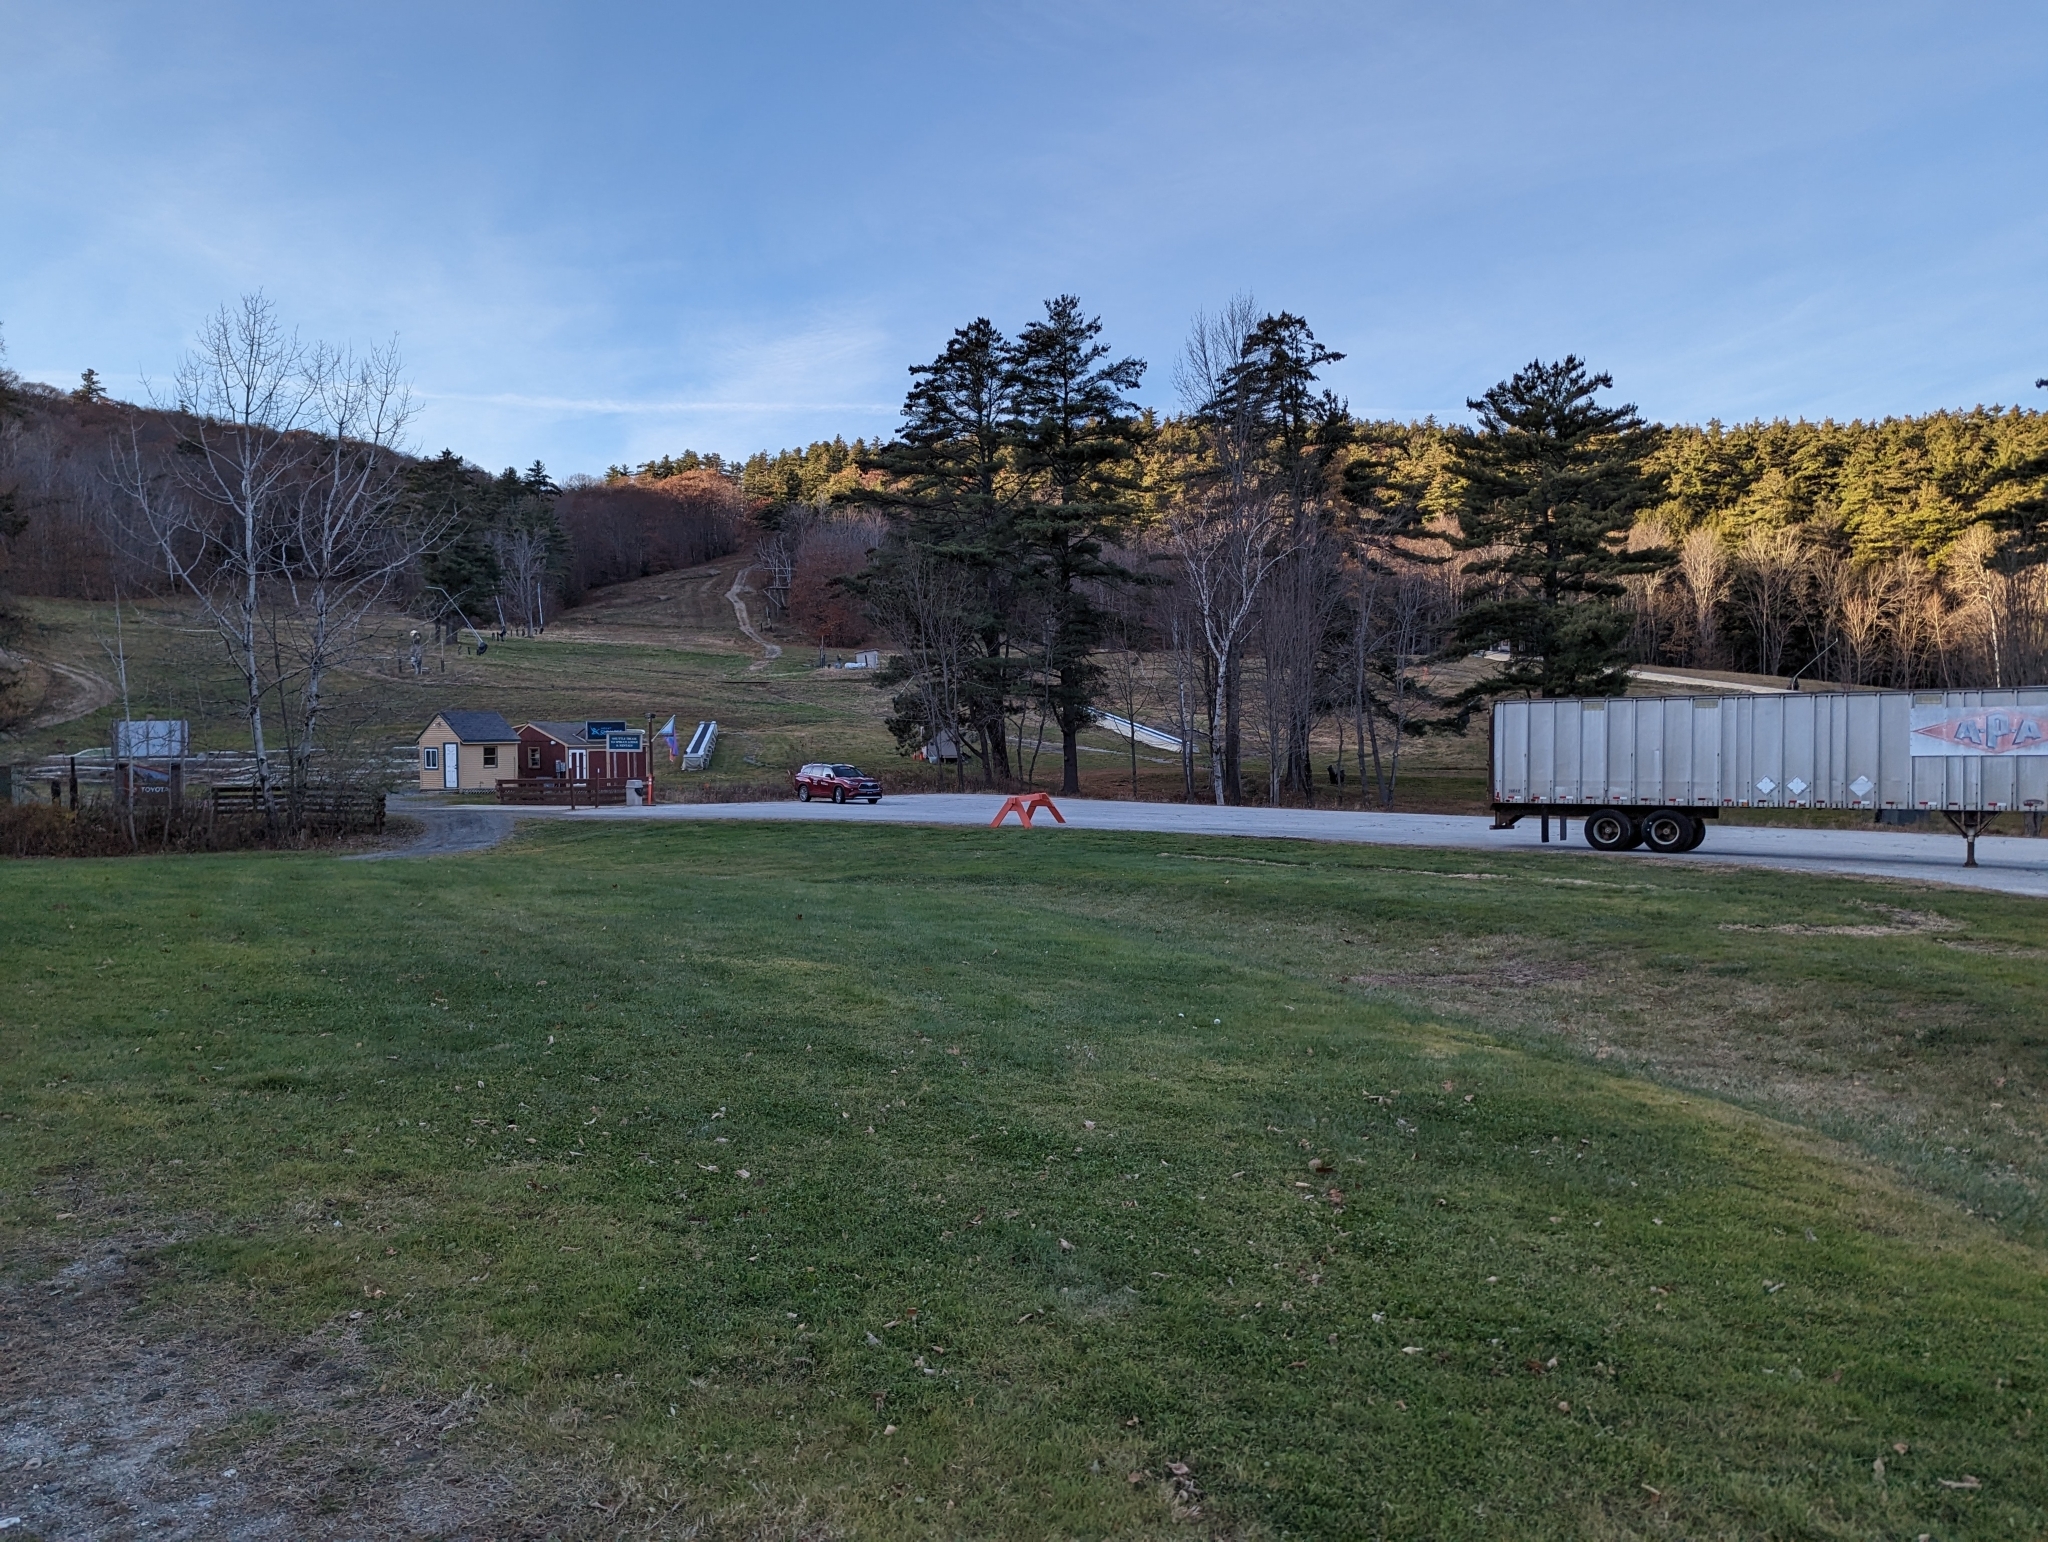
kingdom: Plantae
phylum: Tracheophyta
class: Pinopsida
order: Pinales
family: Pinaceae
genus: Pinus
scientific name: Pinus strobus
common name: Weymouth pine
